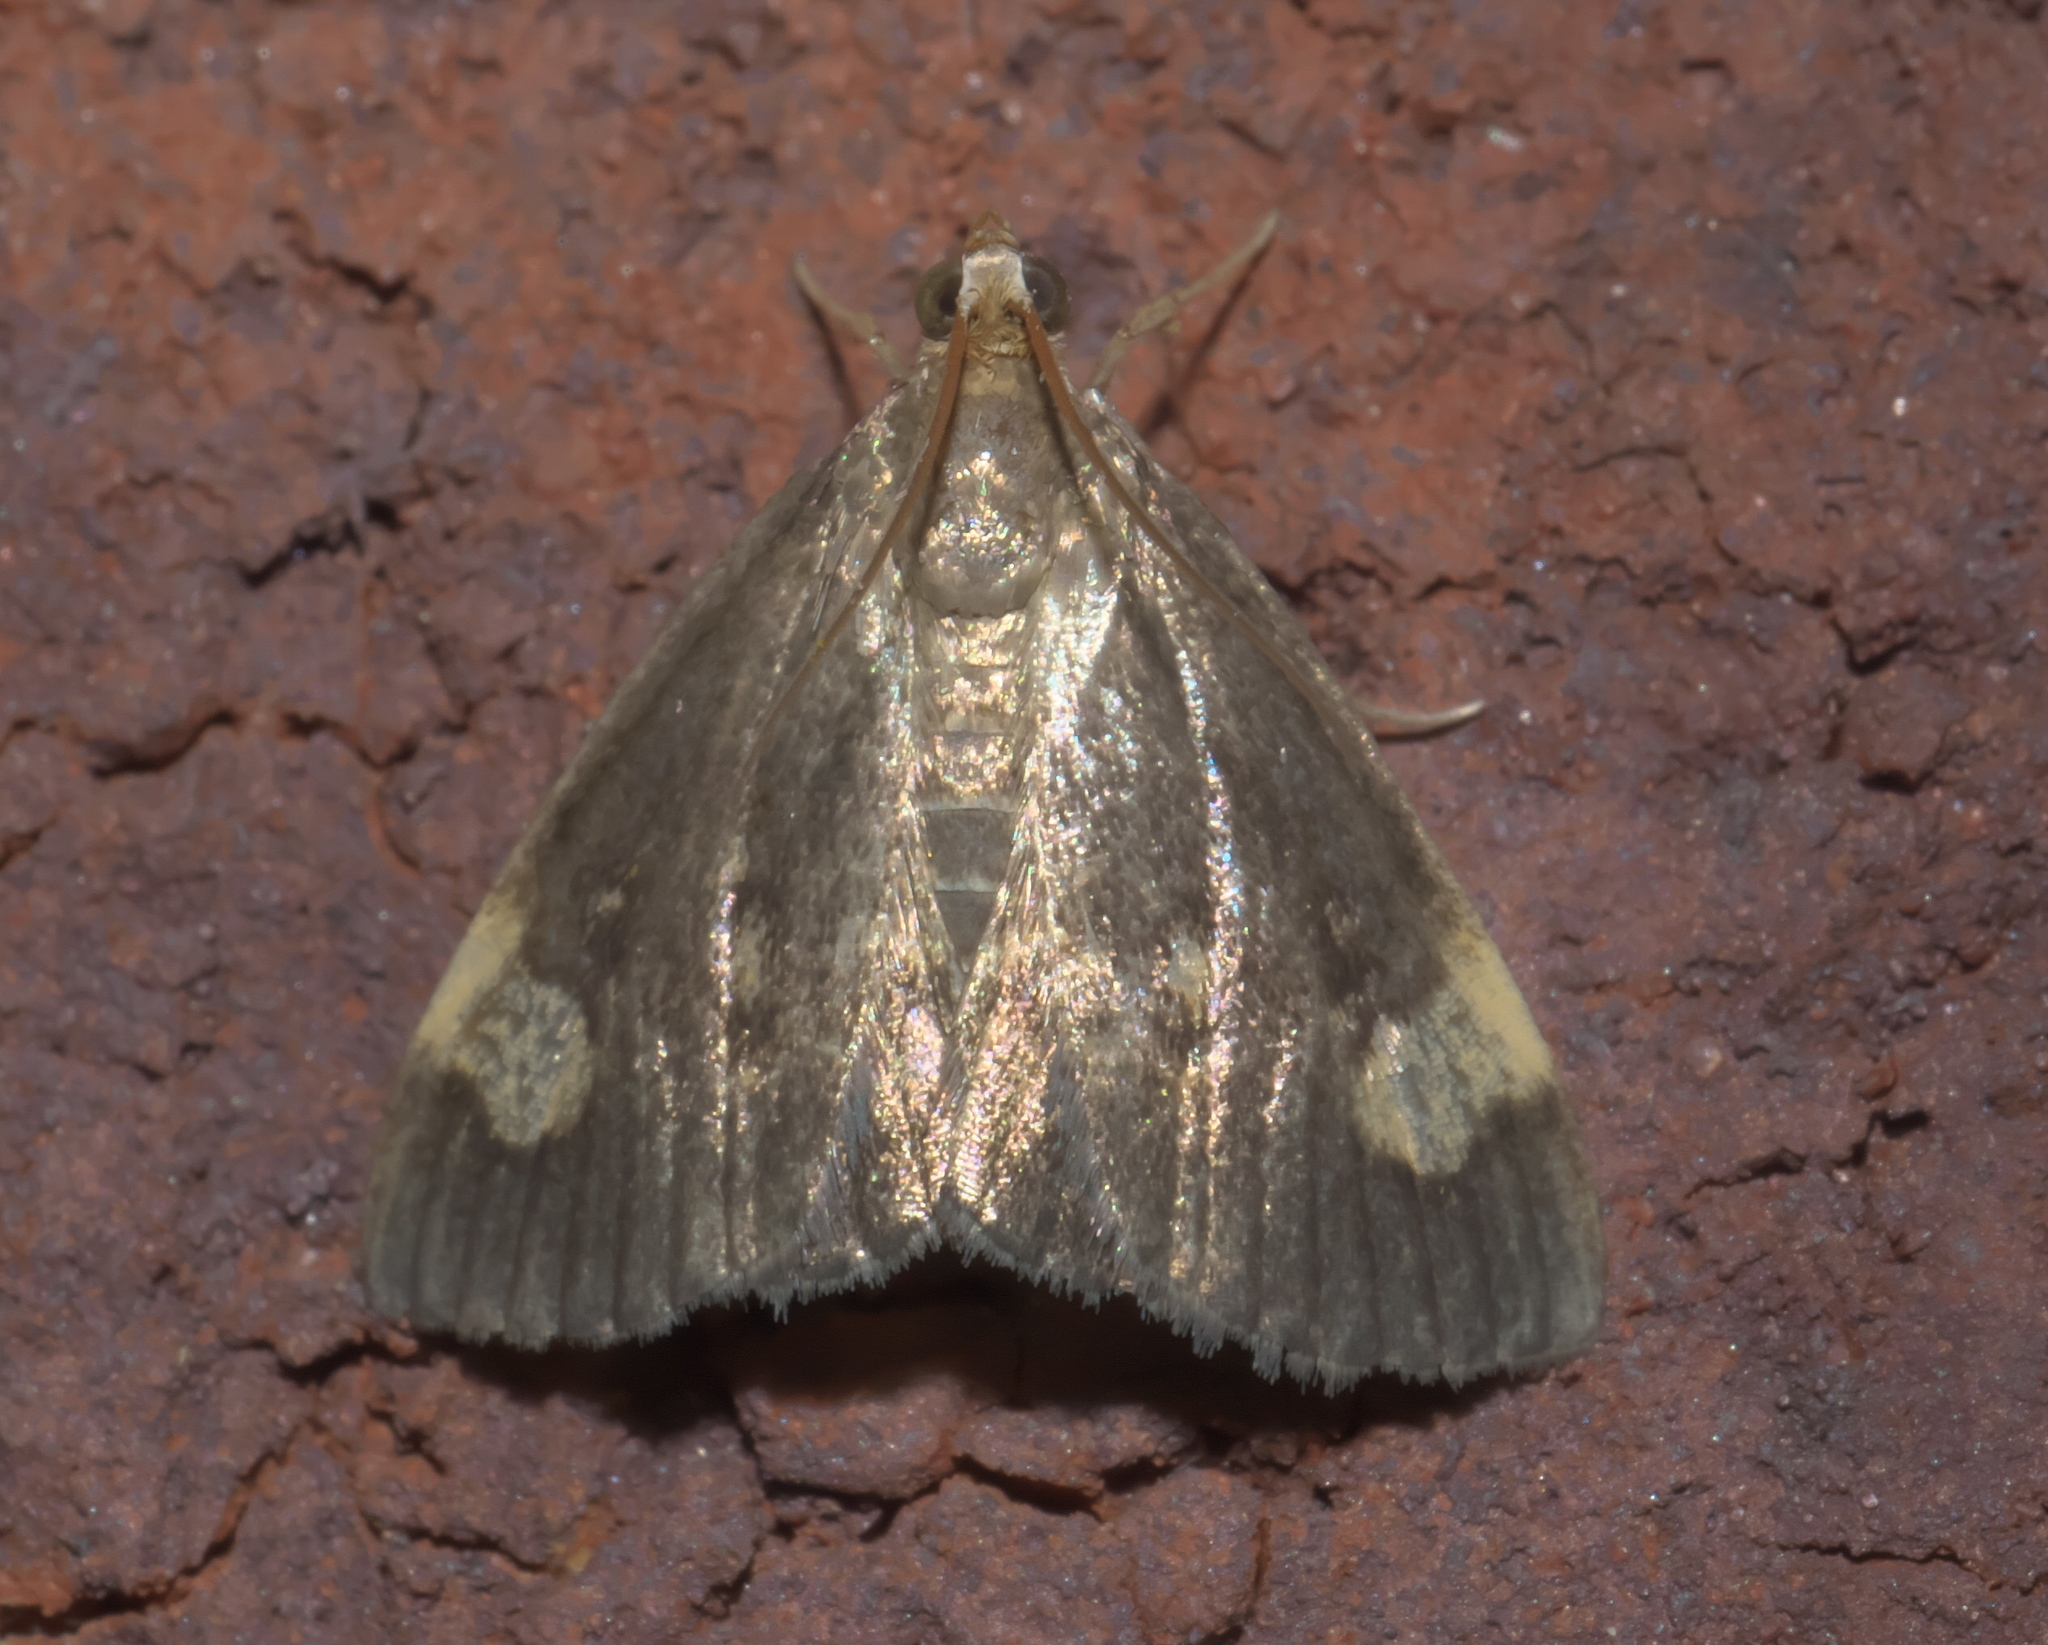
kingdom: Animalia
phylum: Arthropoda
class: Insecta
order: Lepidoptera
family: Crambidae
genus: Evergestis
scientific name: Evergestis unimacula
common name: Large-spotted evergestis moth
